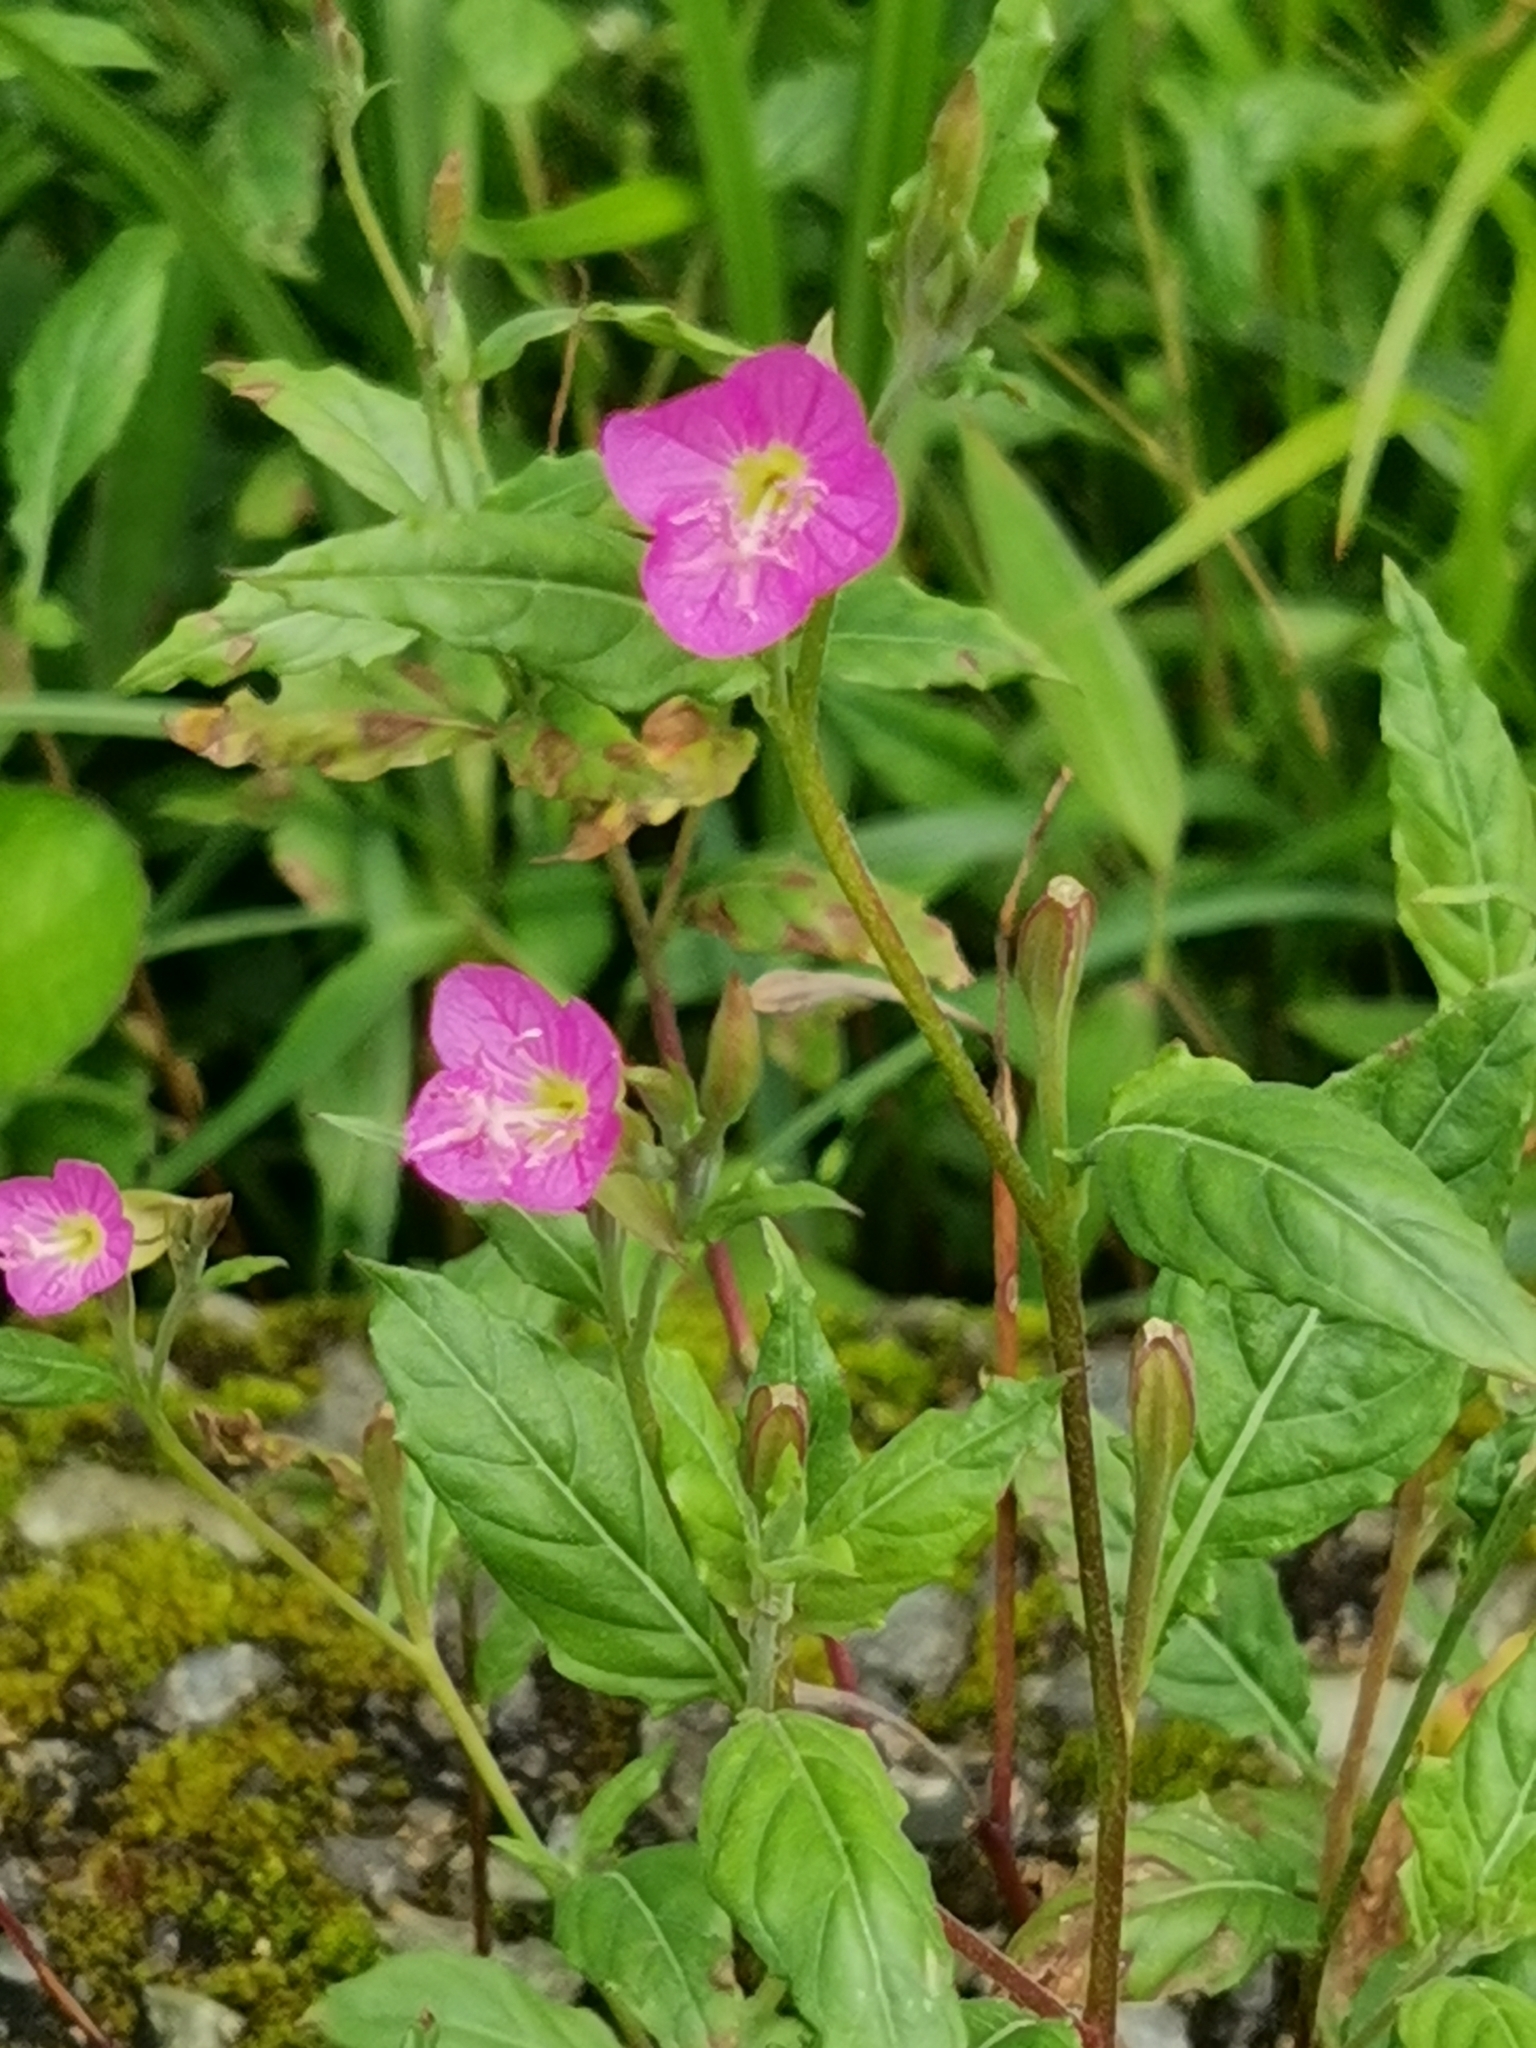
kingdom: Plantae
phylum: Tracheophyta
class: Magnoliopsida
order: Myrtales
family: Onagraceae
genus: Oenothera
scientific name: Oenothera rosea
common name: Rosy evening-primrose
